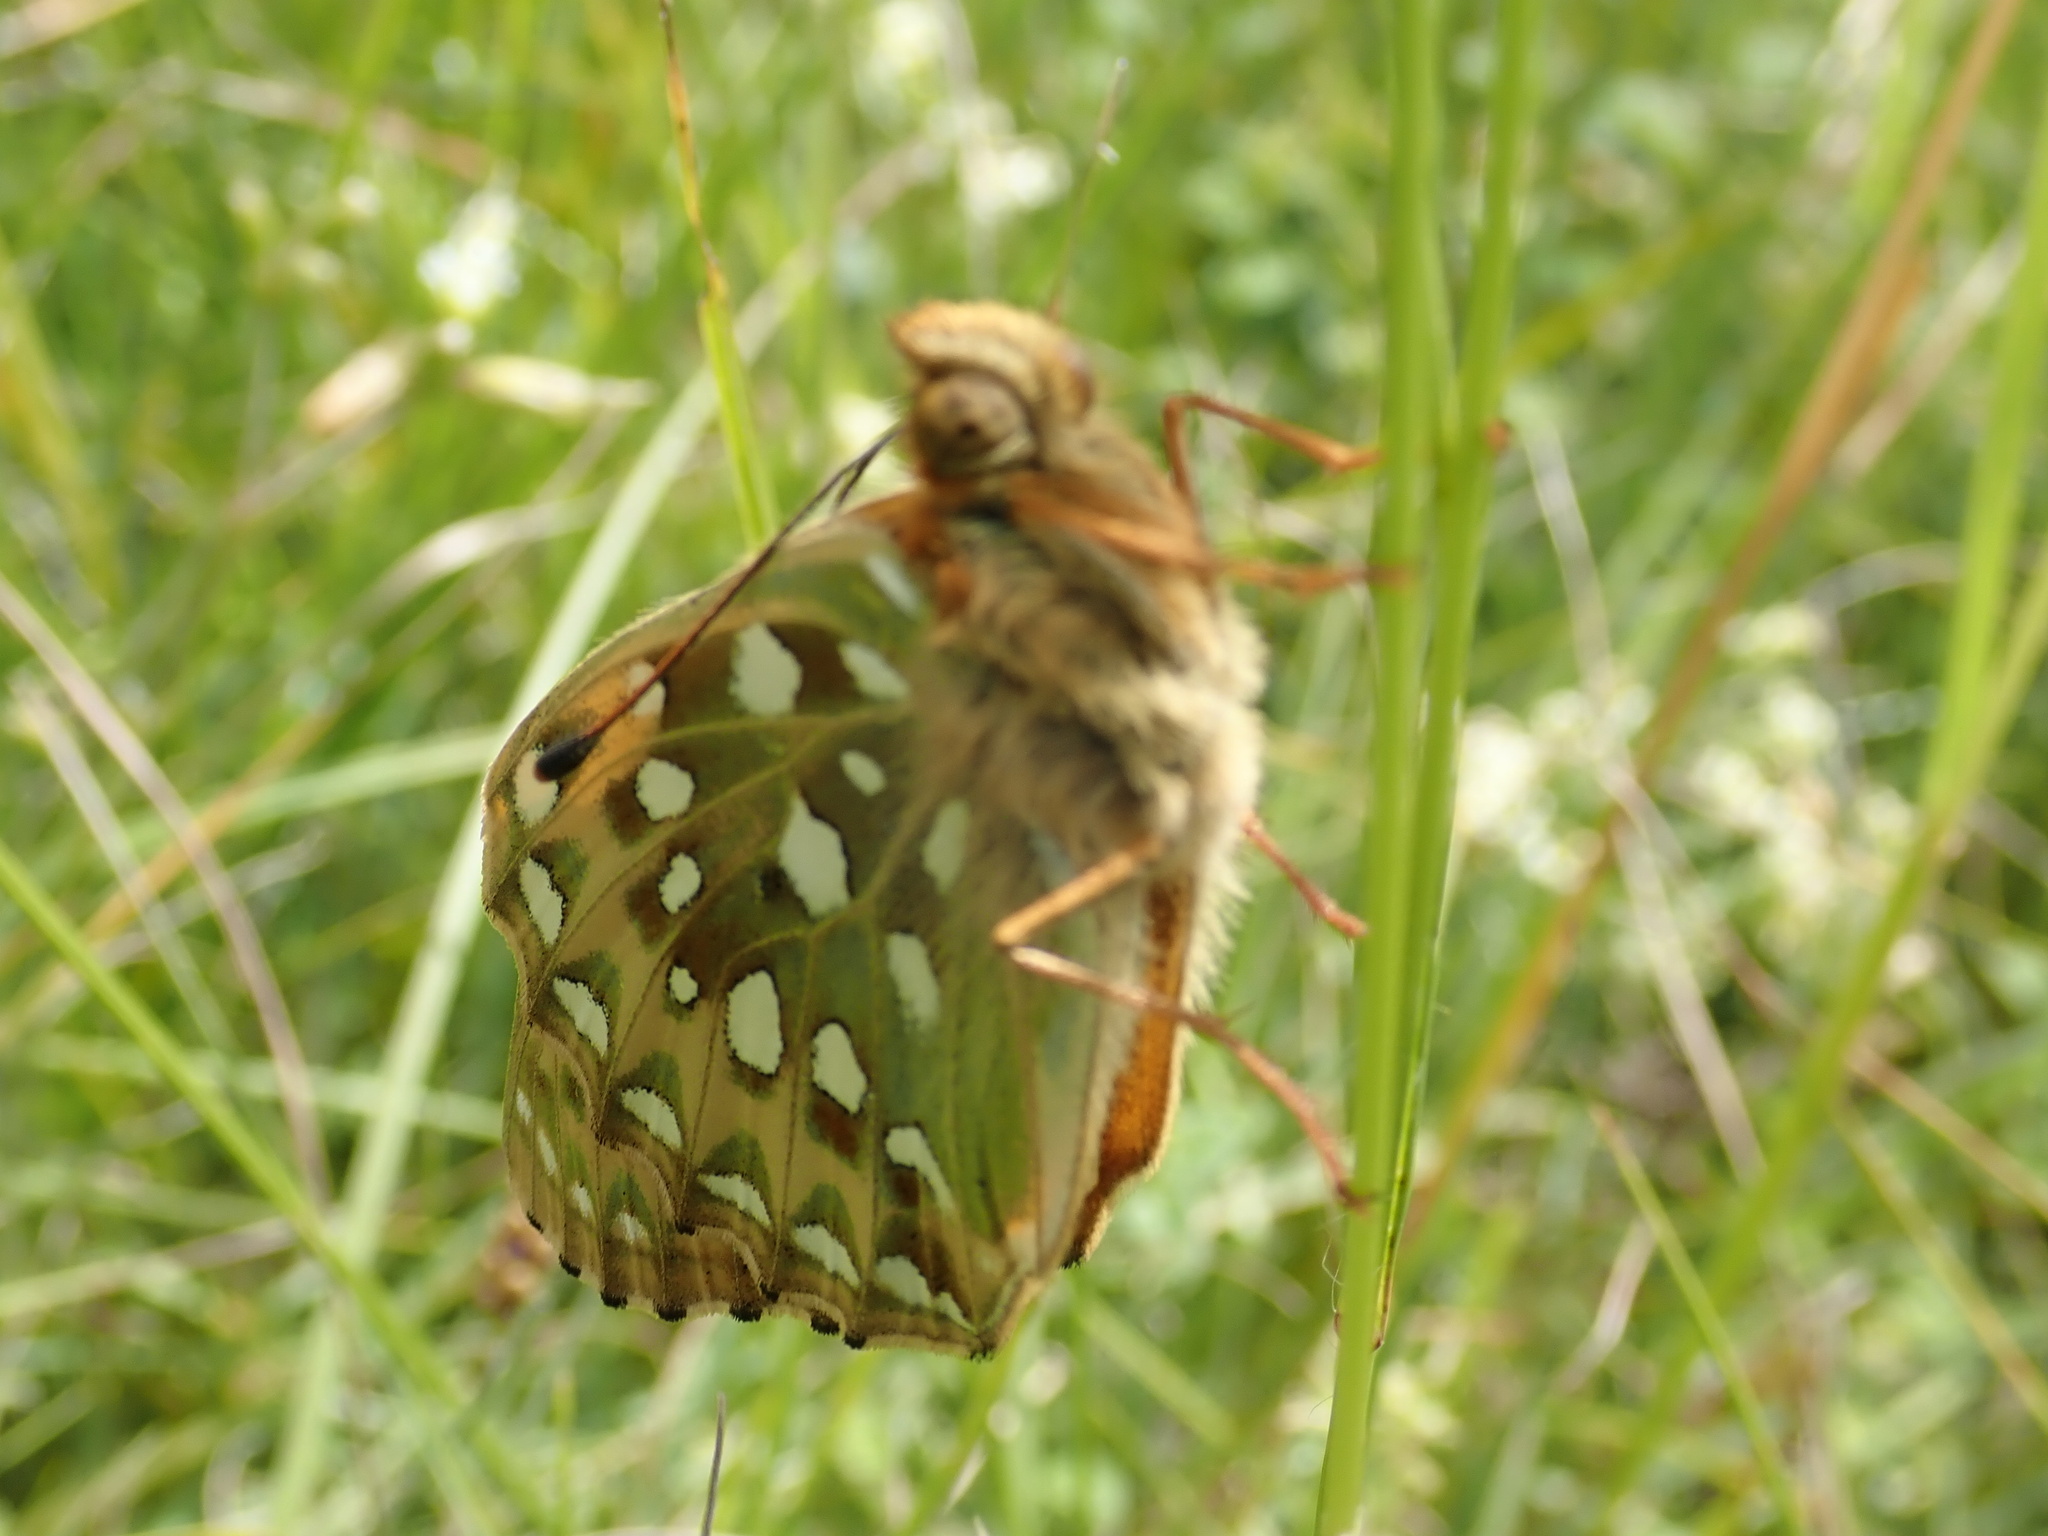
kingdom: Animalia
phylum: Arthropoda
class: Insecta
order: Lepidoptera
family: Nymphalidae
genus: Speyeria
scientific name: Speyeria aglaja
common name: Dark green fritillary
